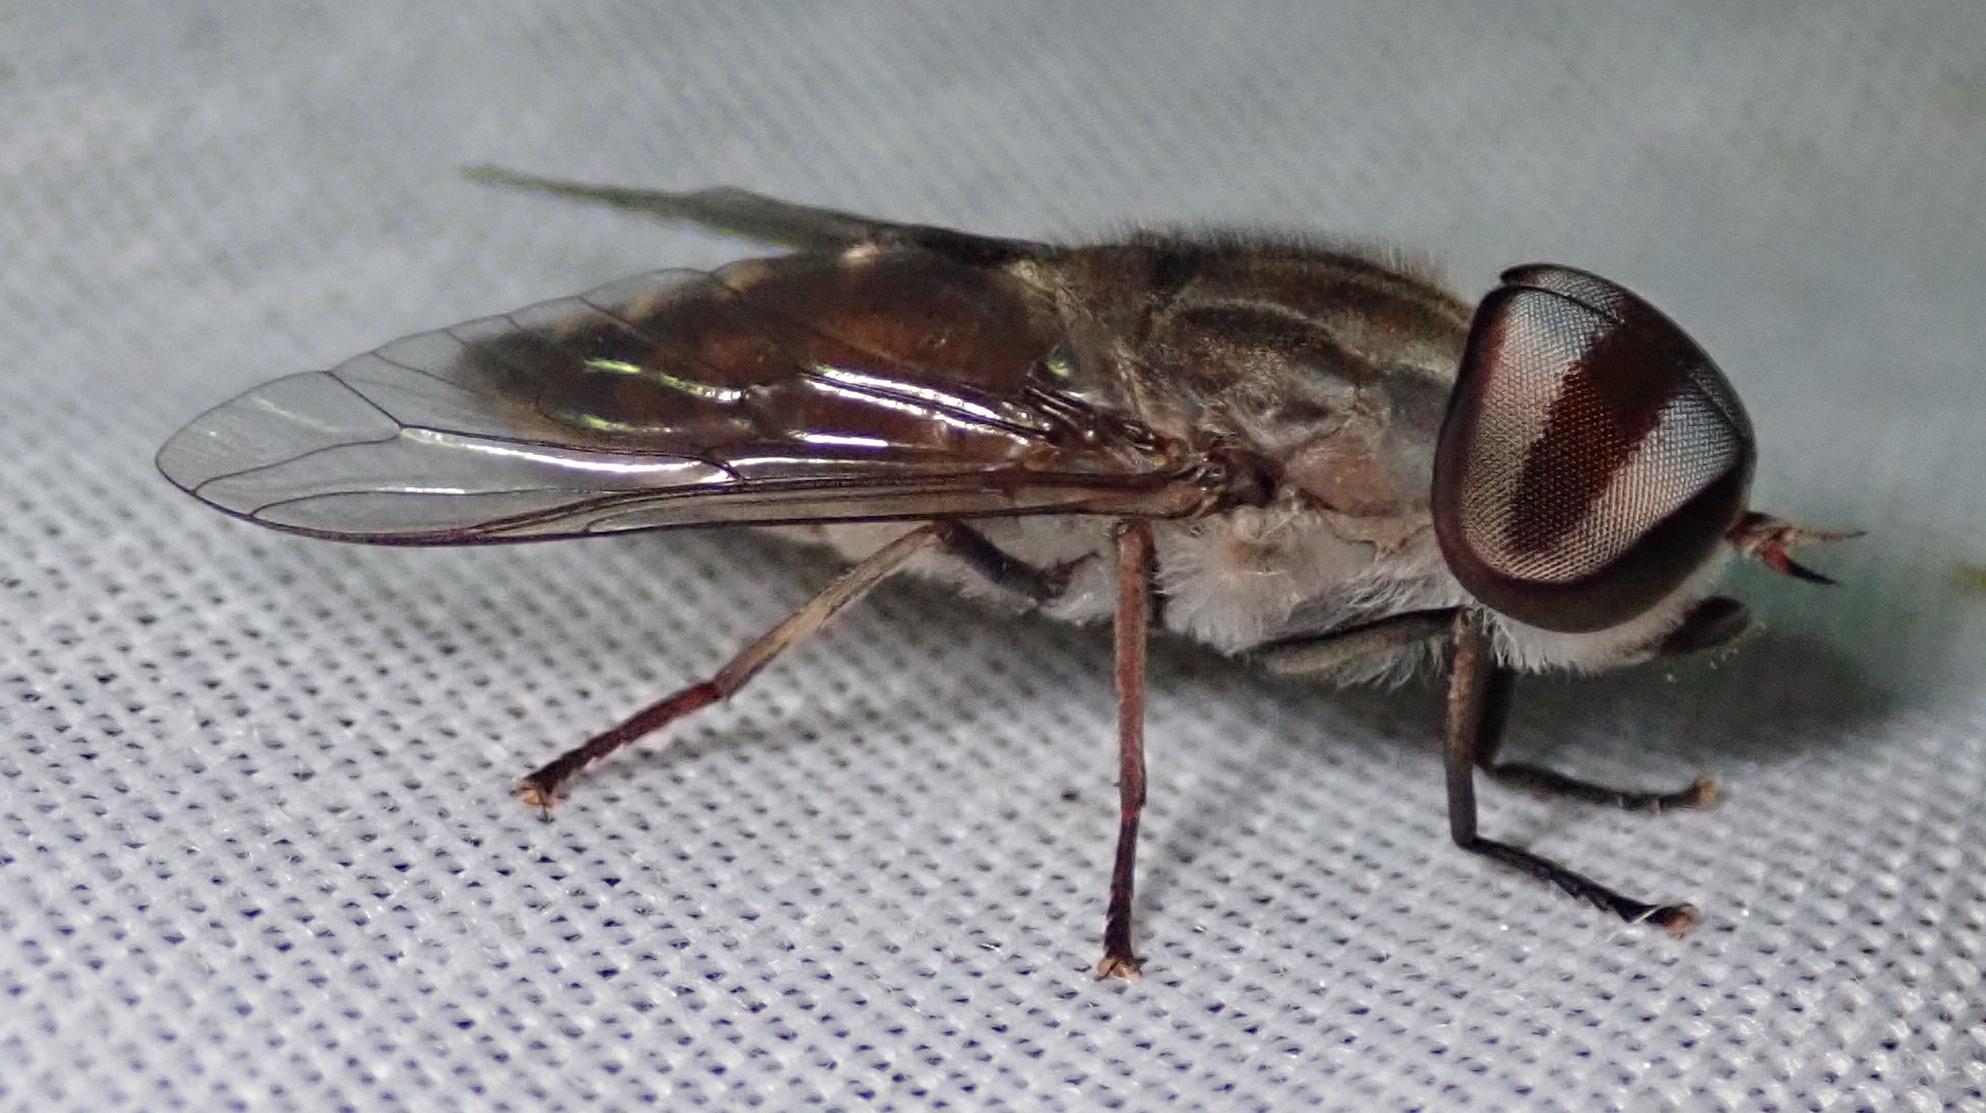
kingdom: Animalia
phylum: Arthropoda
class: Insecta
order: Diptera
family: Tabanidae
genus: Tabanus
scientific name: Tabanus taeniola
